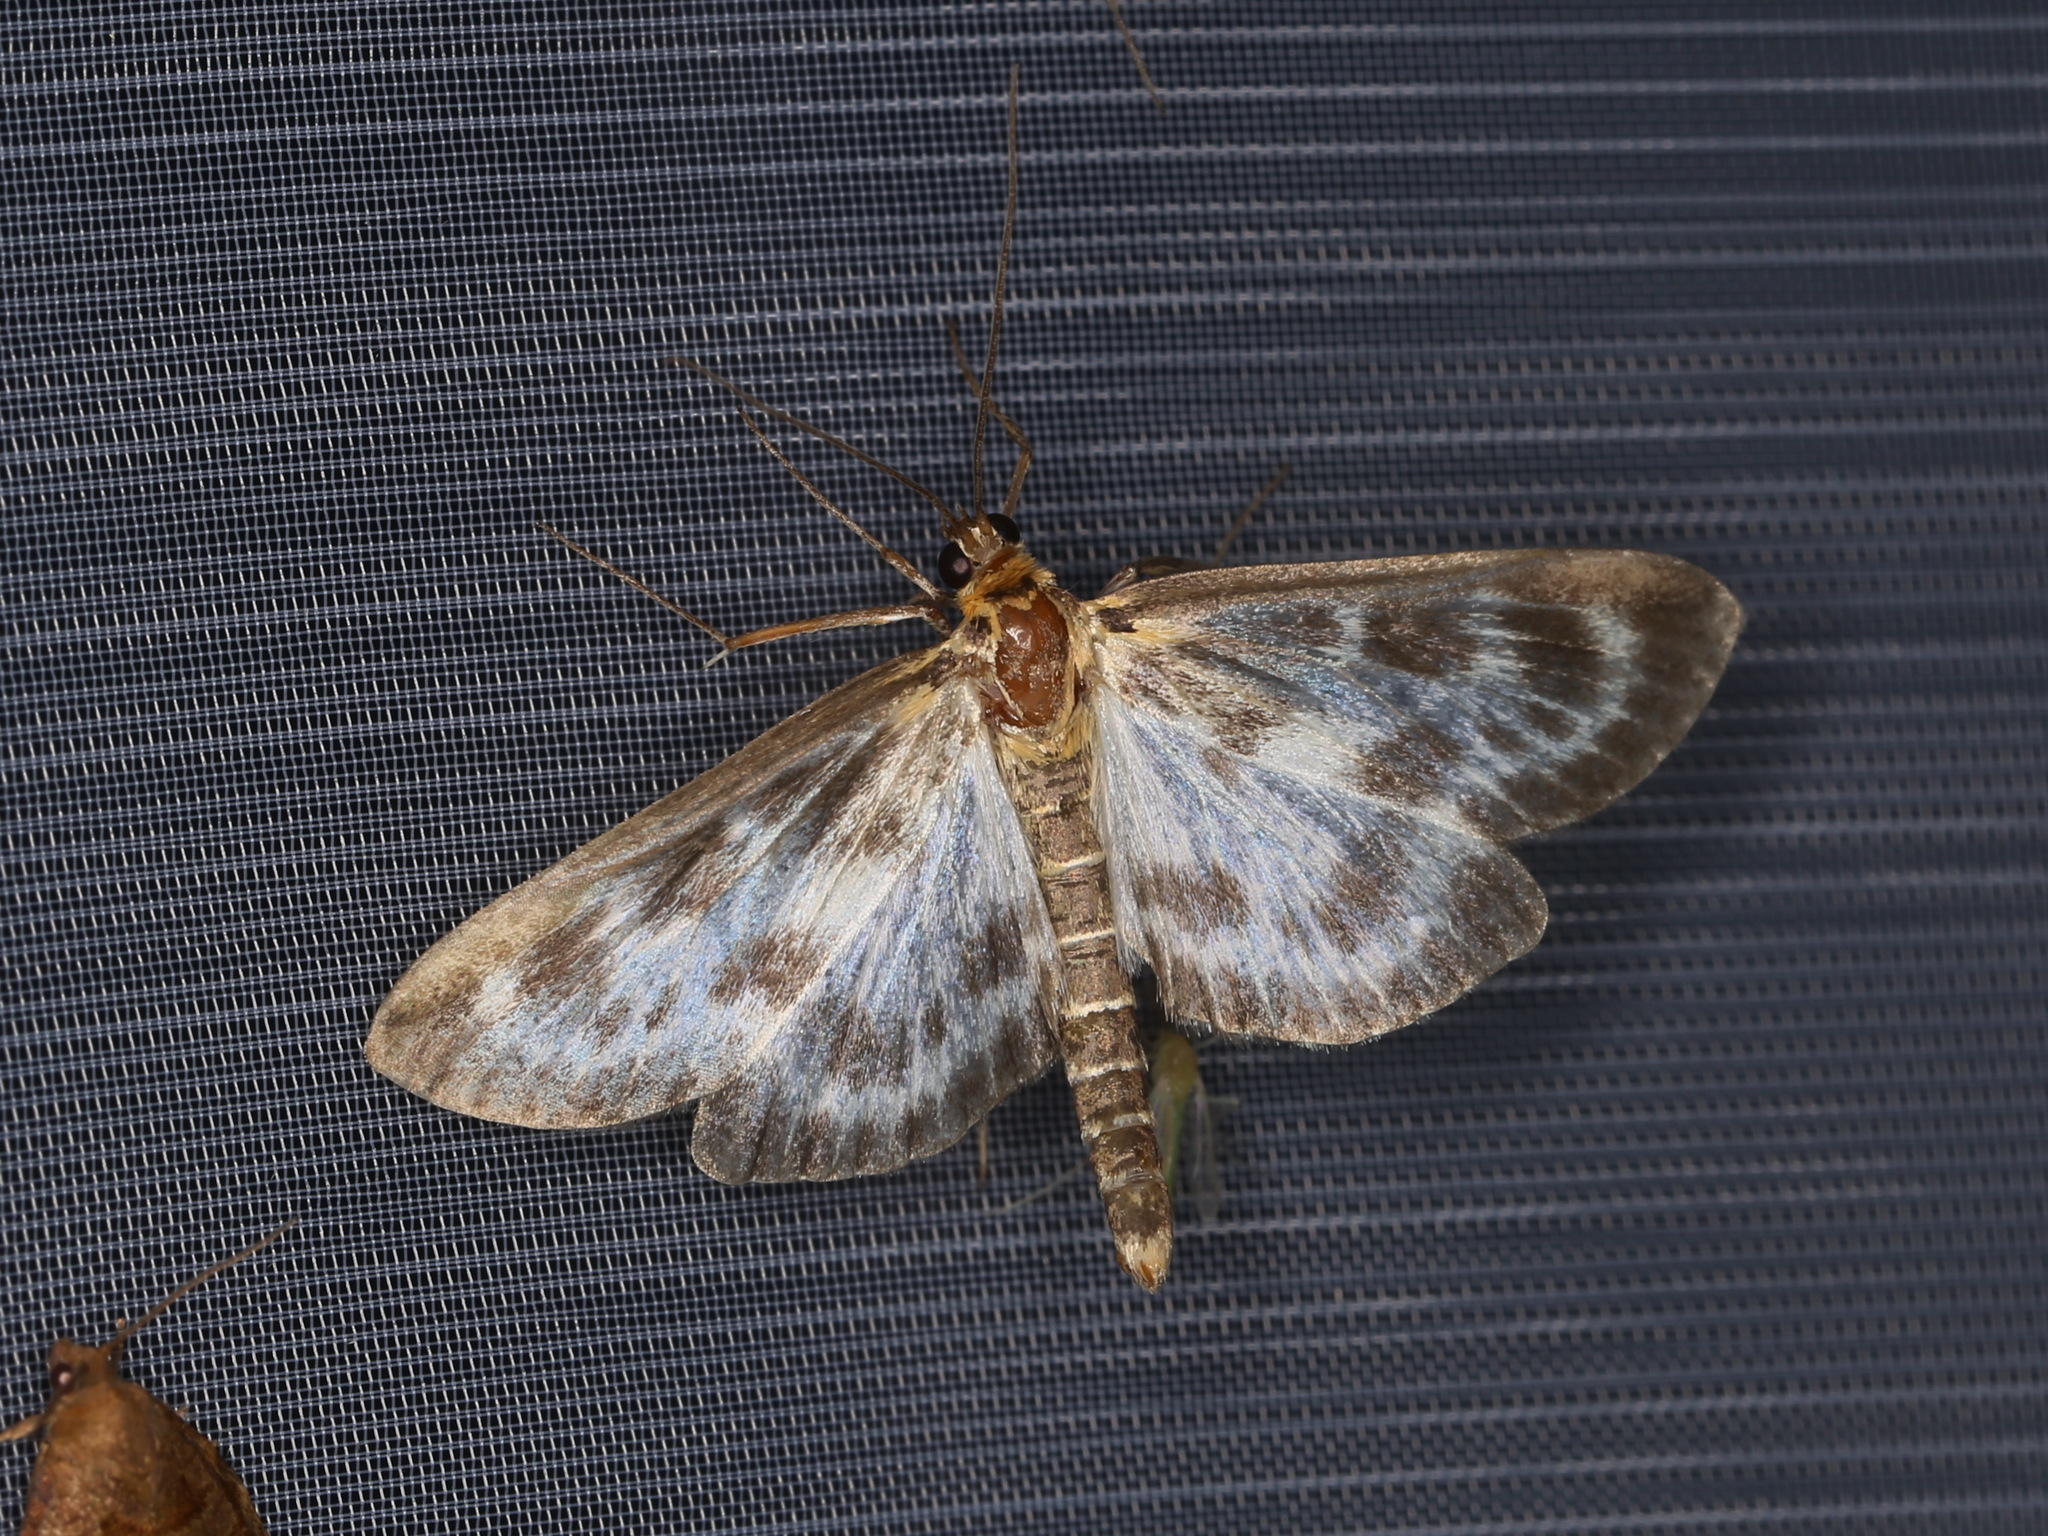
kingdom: Animalia
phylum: Arthropoda
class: Insecta
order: Lepidoptera
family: Crambidae
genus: Anania
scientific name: Anania hortulata
